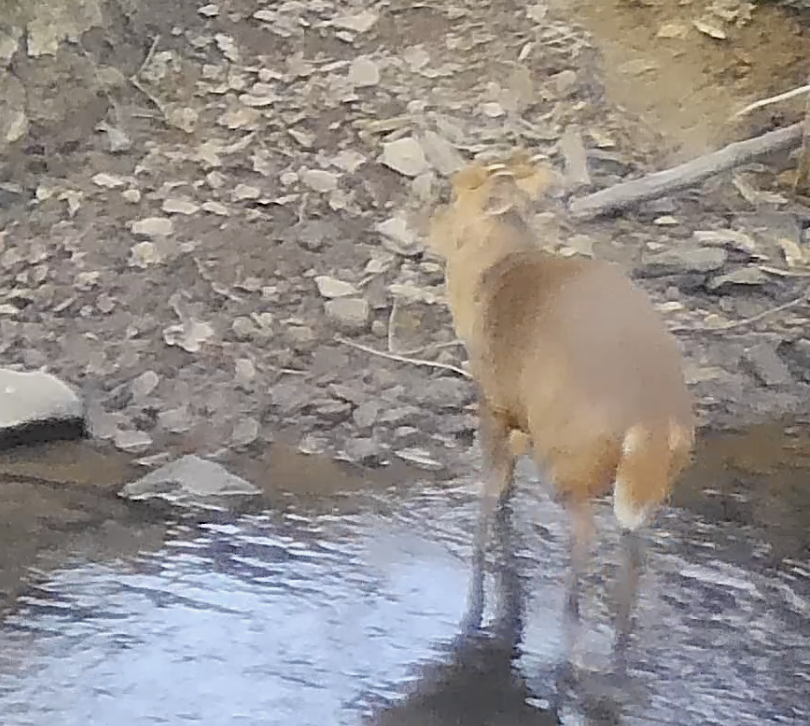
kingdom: Animalia
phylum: Chordata
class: Mammalia
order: Artiodactyla
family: Cervidae
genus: Muntiacus
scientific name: Muntiacus reevesi
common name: Reeves' muntjac
